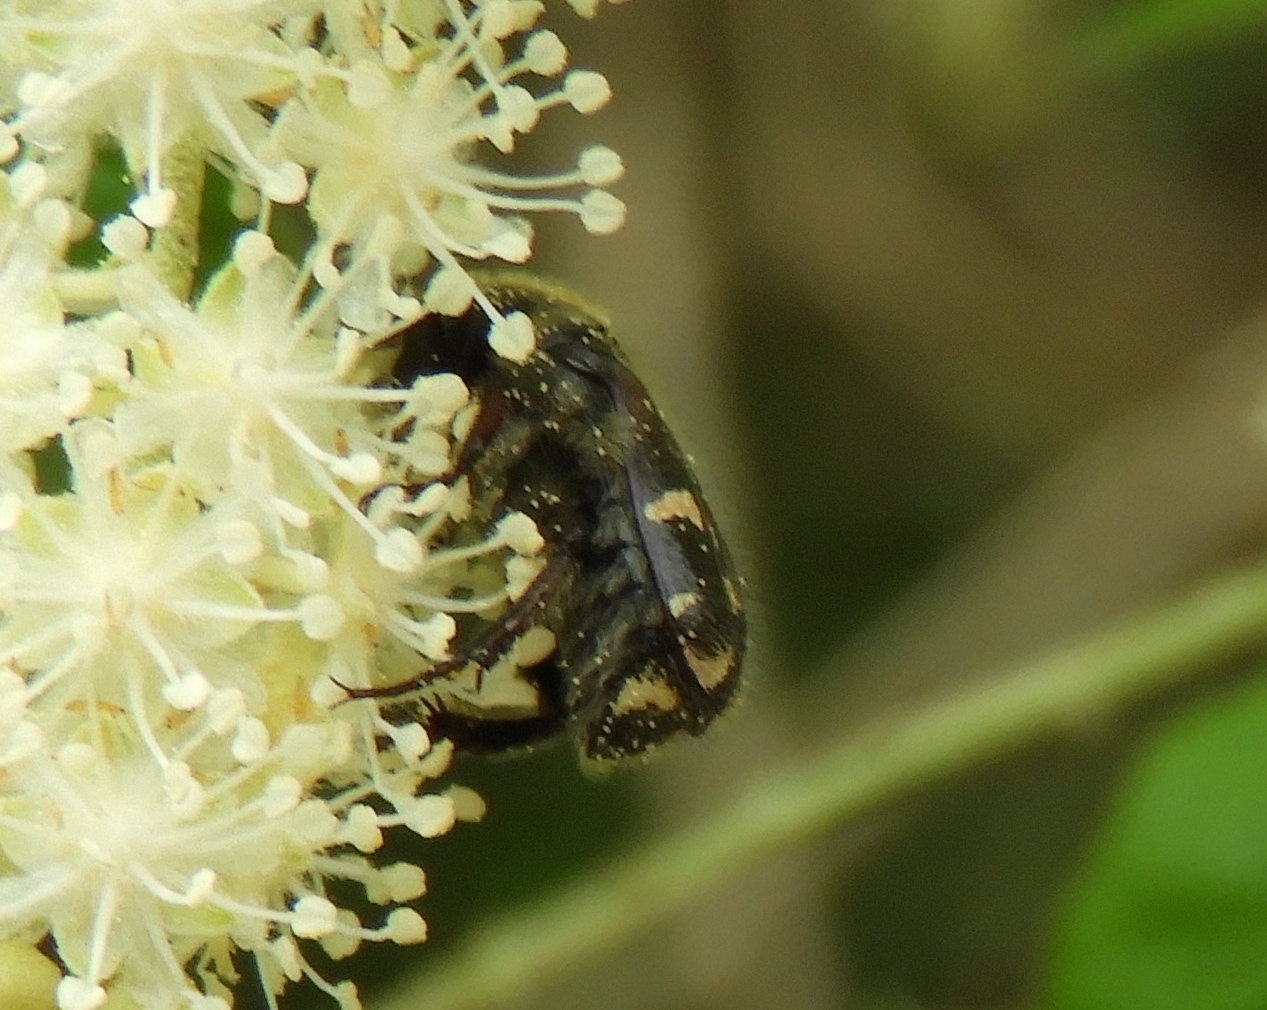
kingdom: Animalia
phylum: Arthropoda
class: Insecta
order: Coleoptera
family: Scarabaeidae
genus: Euphoria
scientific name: Euphoria pulchella
